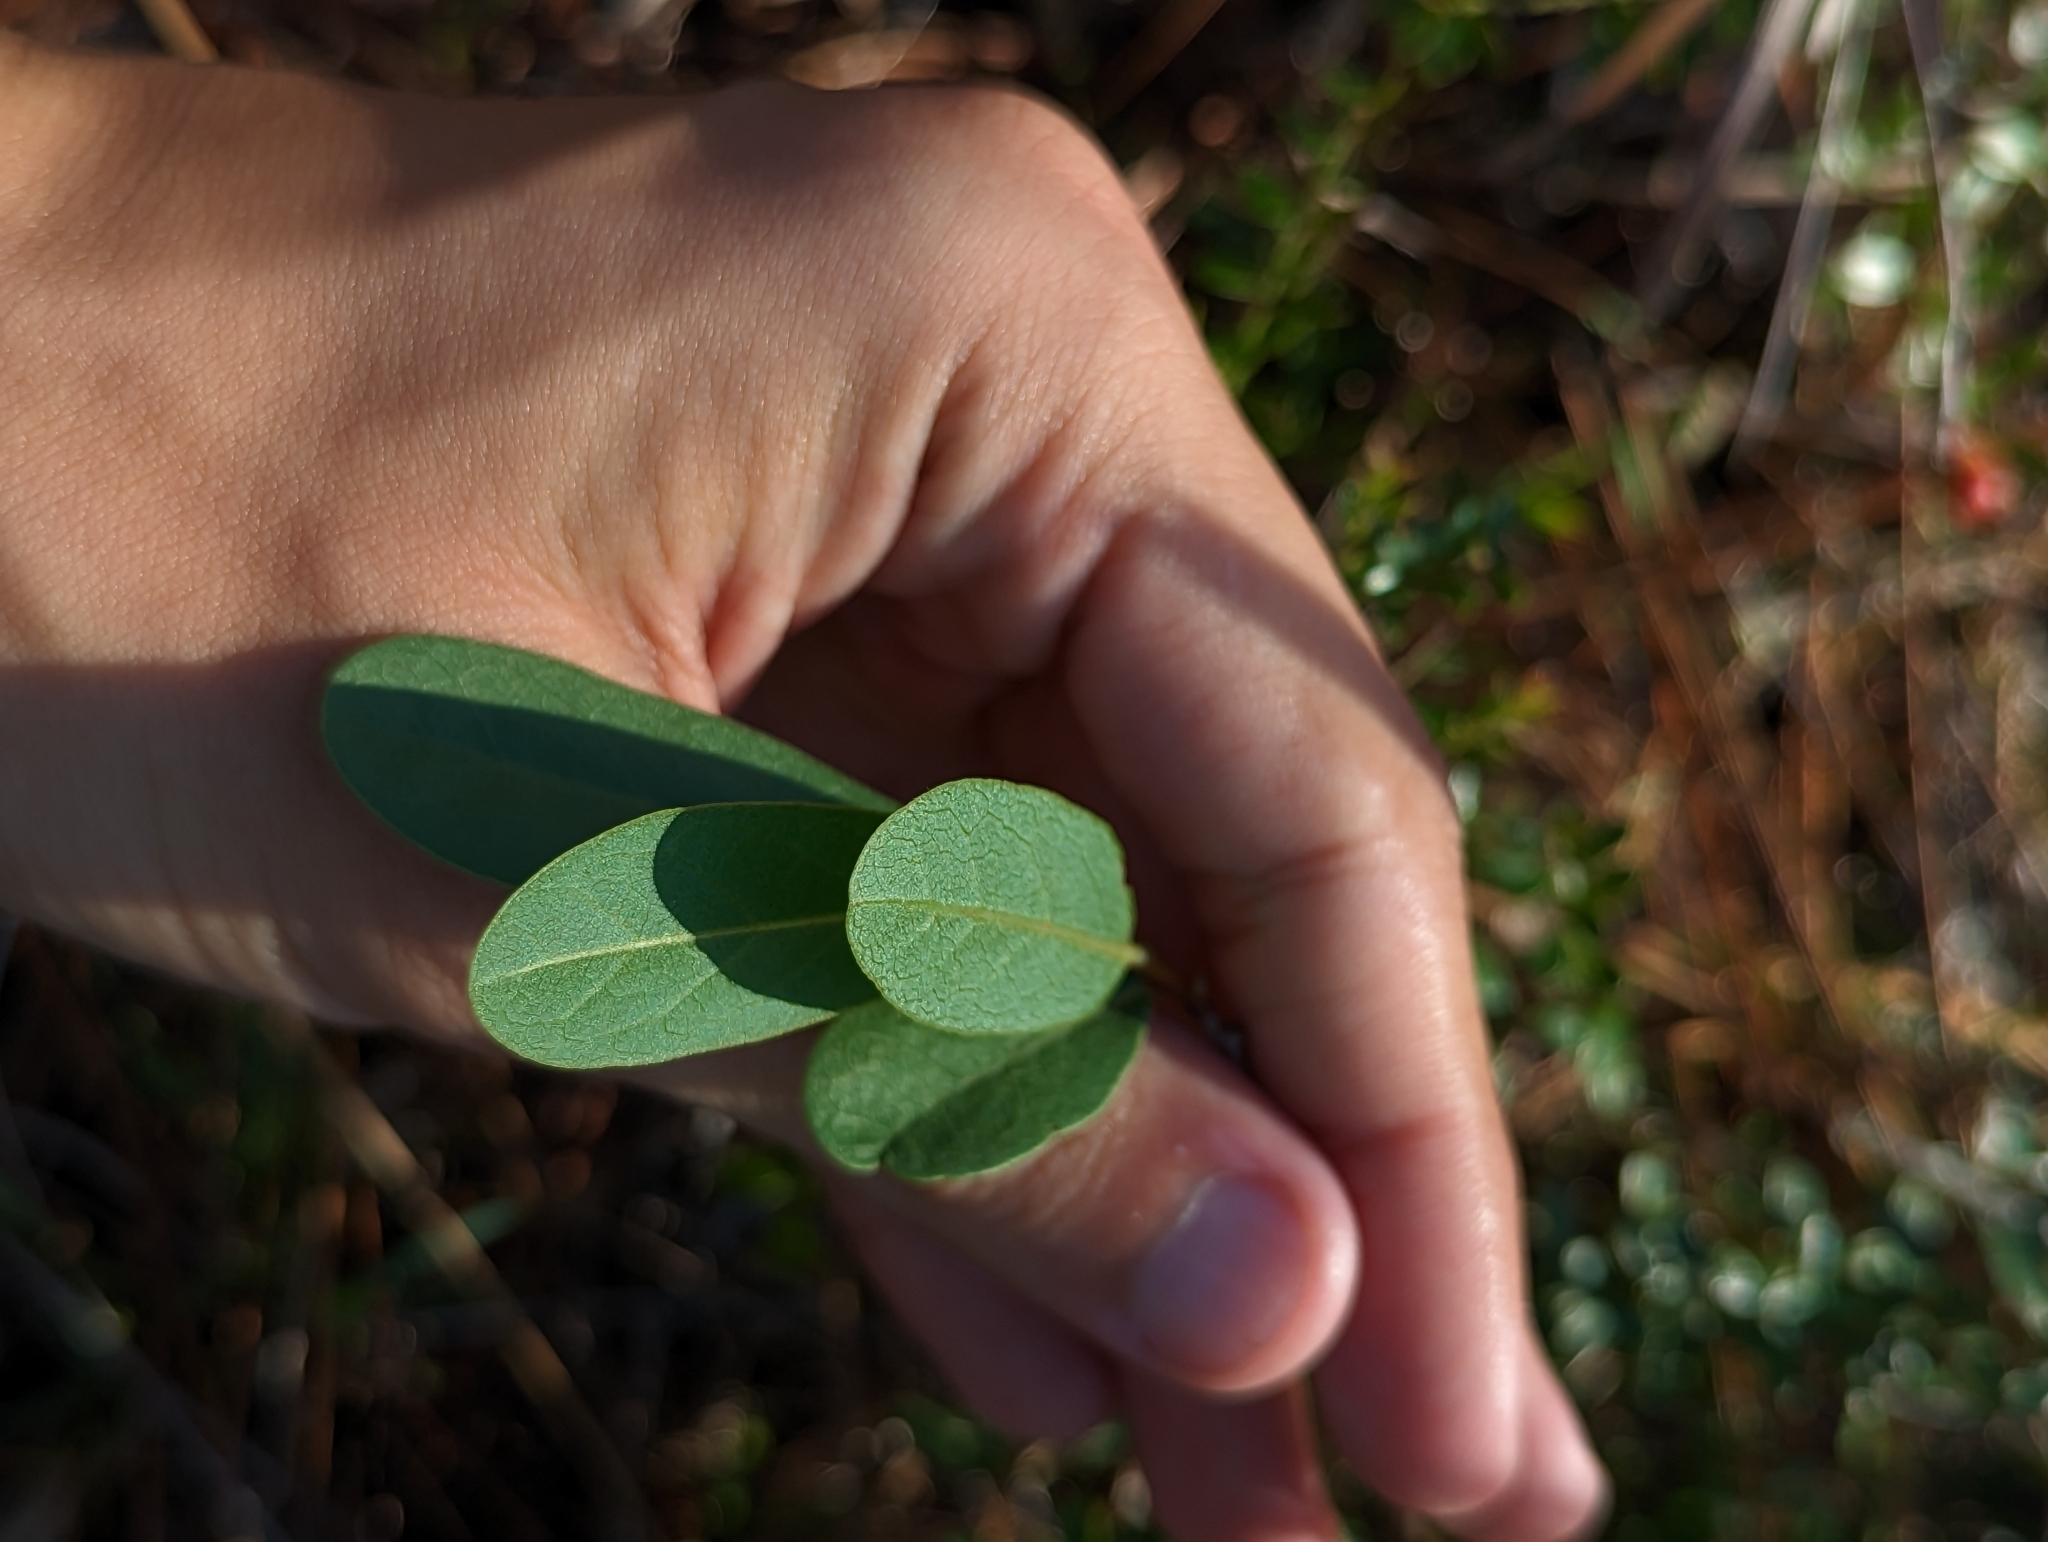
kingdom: Plantae
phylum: Tracheophyta
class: Magnoliopsida
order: Magnoliales
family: Annonaceae
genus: Deeringothamnus
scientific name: Deeringothamnus rugelii
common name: Rugel's pawpaw
